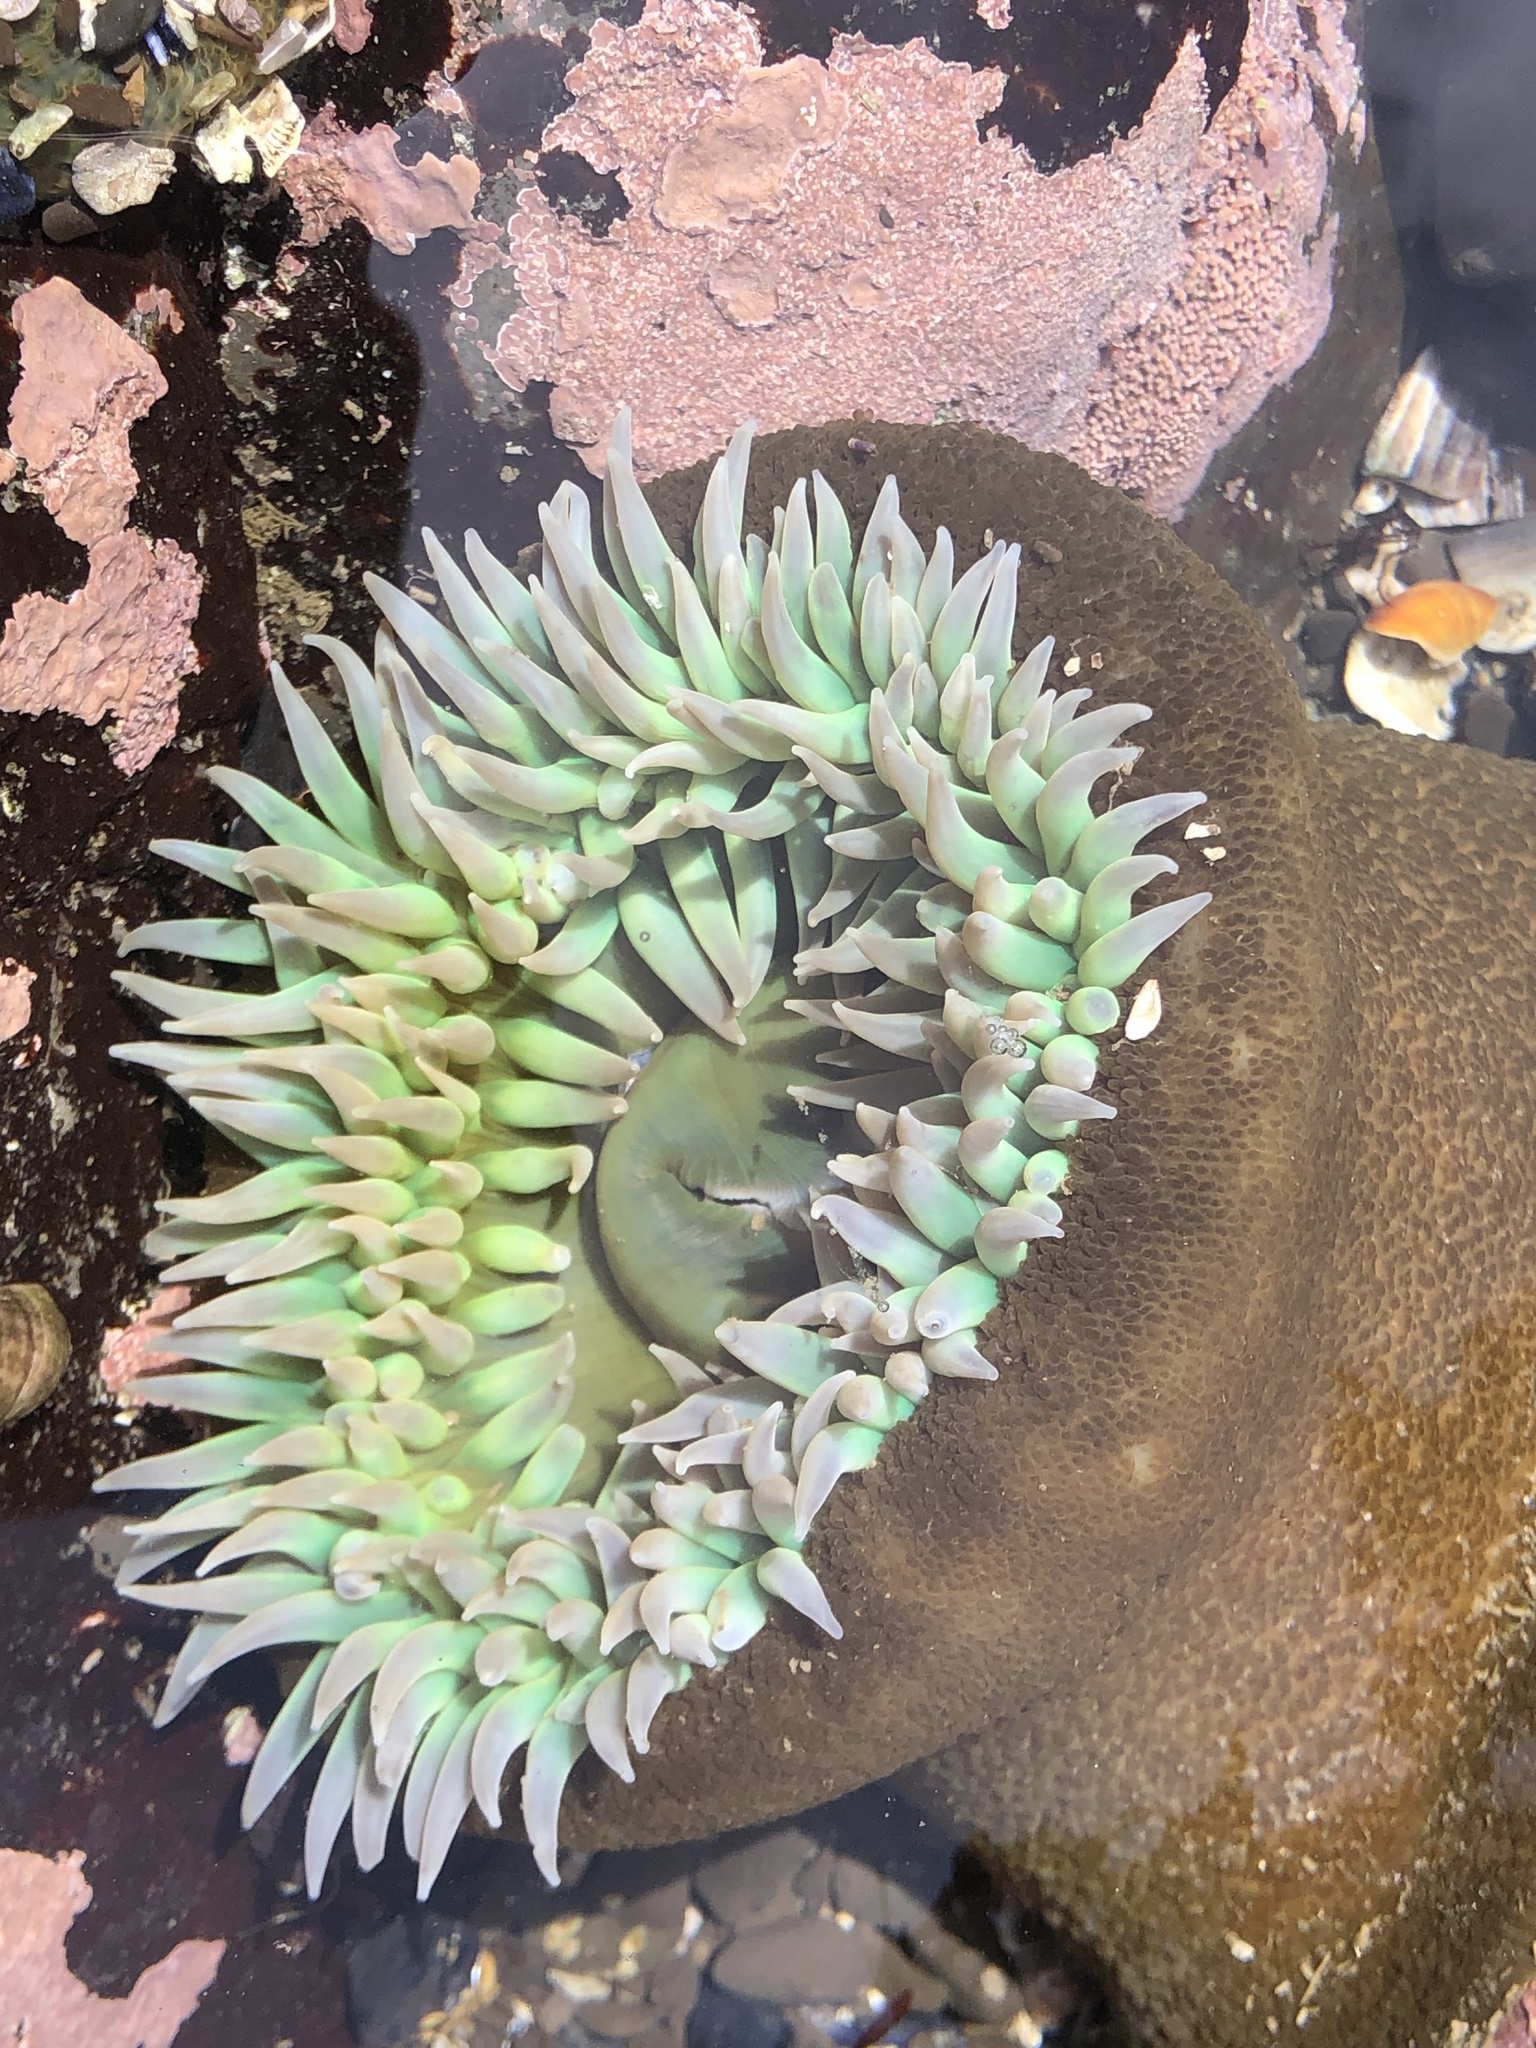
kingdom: Animalia
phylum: Cnidaria
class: Anthozoa
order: Actiniaria
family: Actiniidae
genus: Anthopleura
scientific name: Anthopleura xanthogrammica
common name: Giant green anemone
